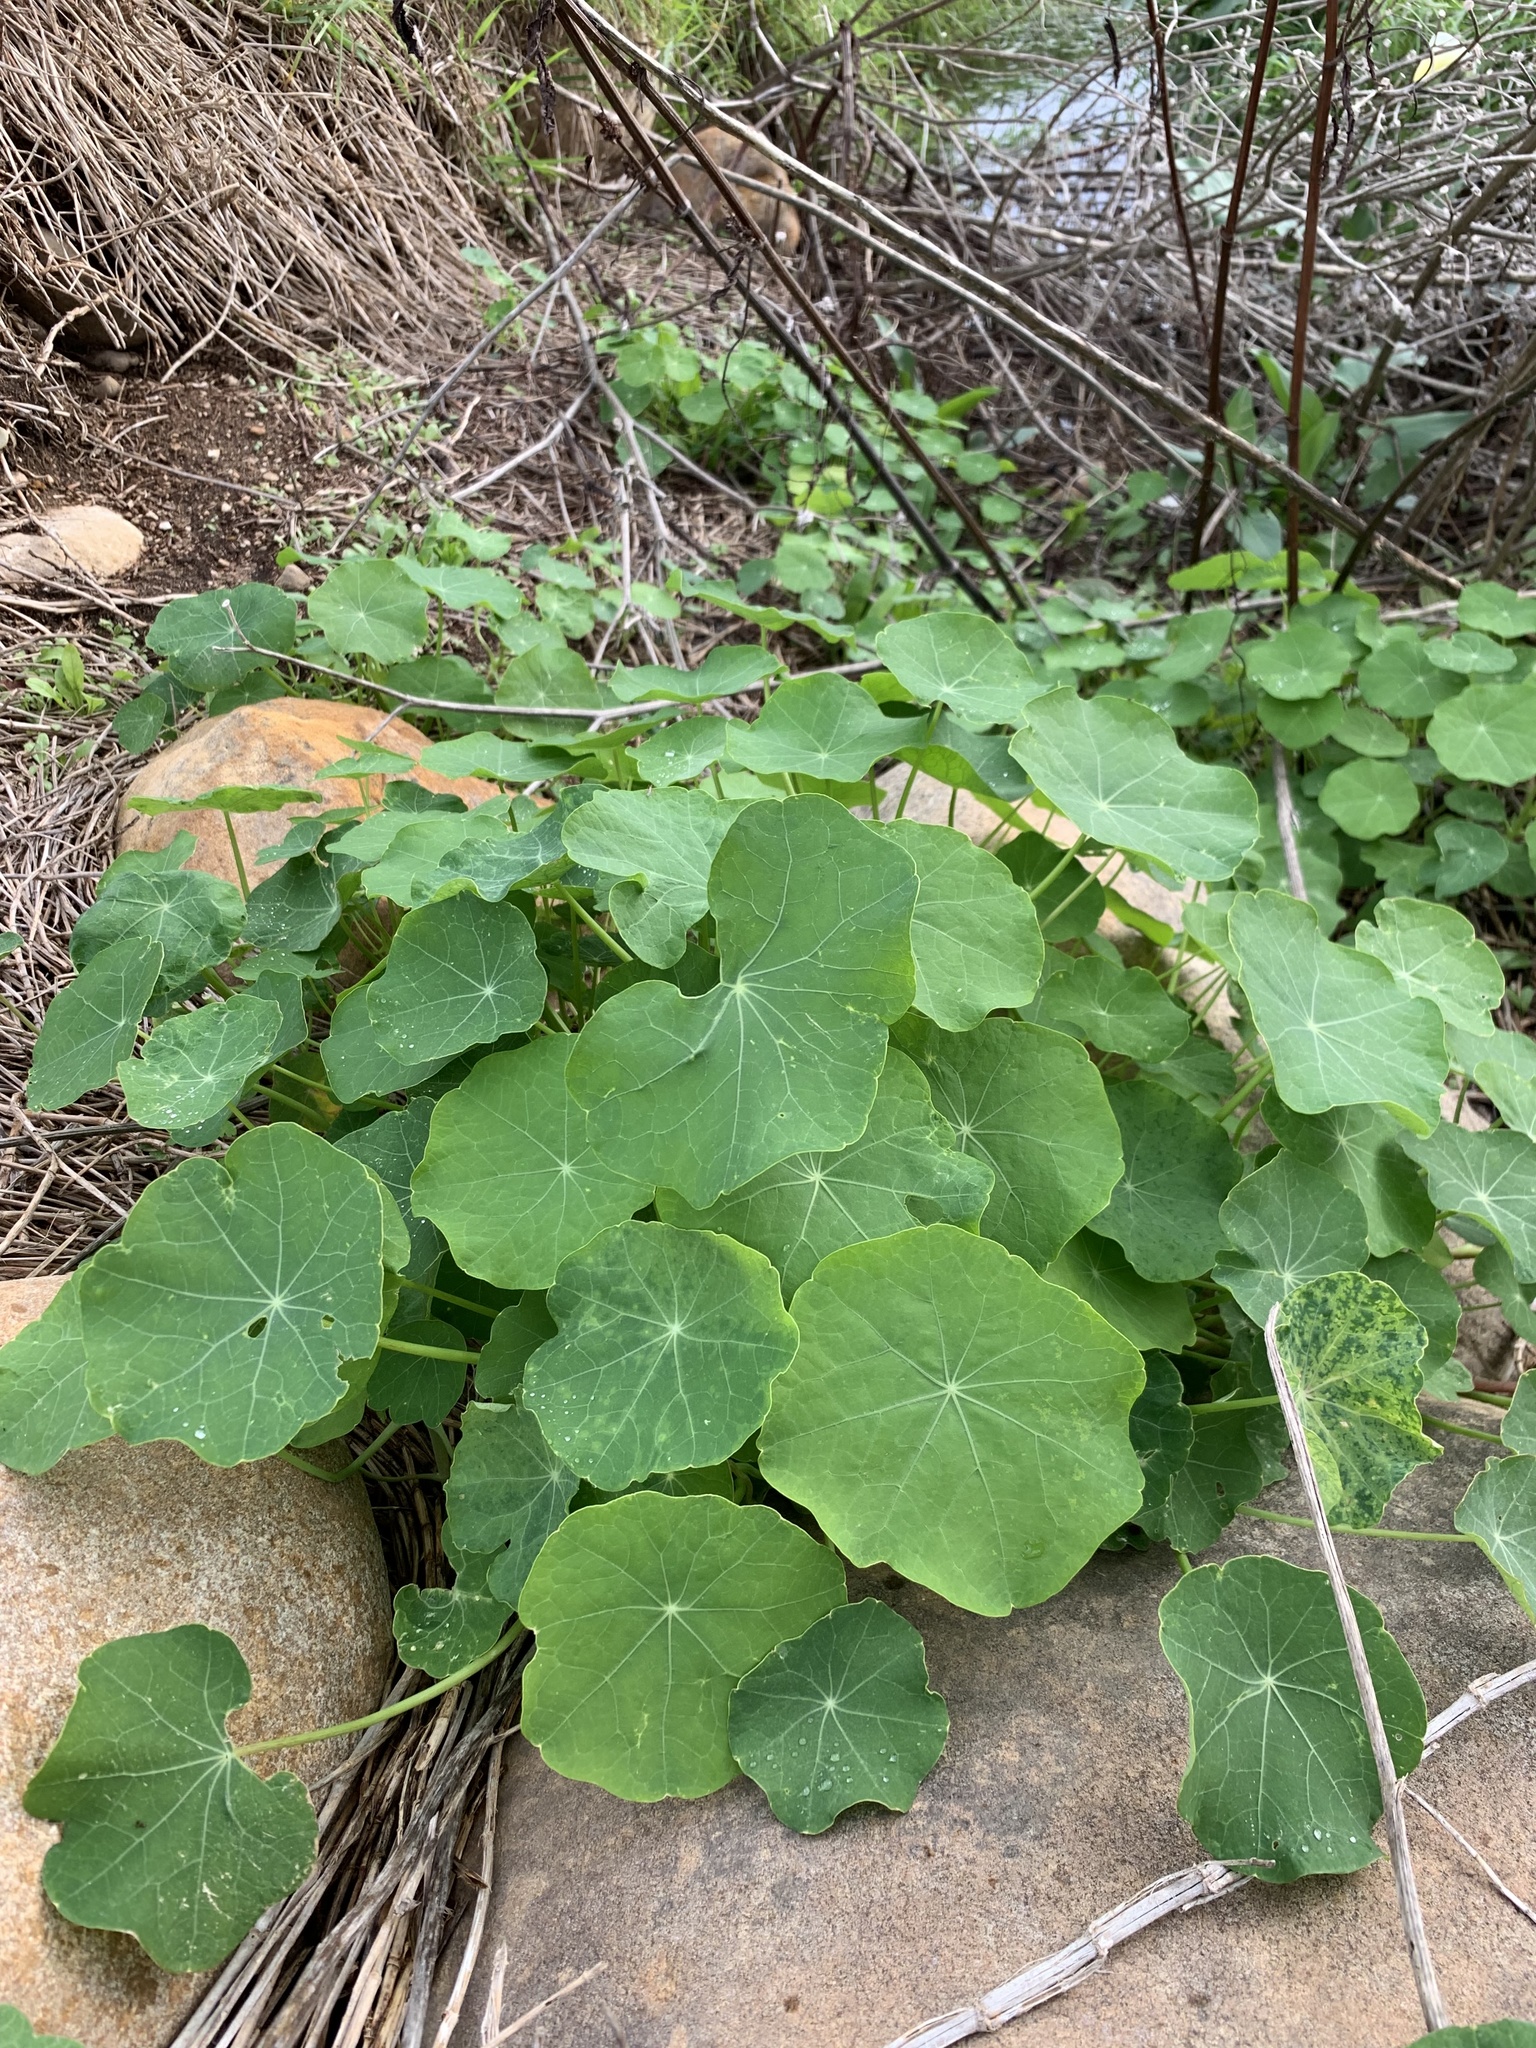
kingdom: Plantae
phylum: Tracheophyta
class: Magnoliopsida
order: Brassicales
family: Tropaeolaceae
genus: Tropaeolum
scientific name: Tropaeolum majus
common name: Nasturtium
